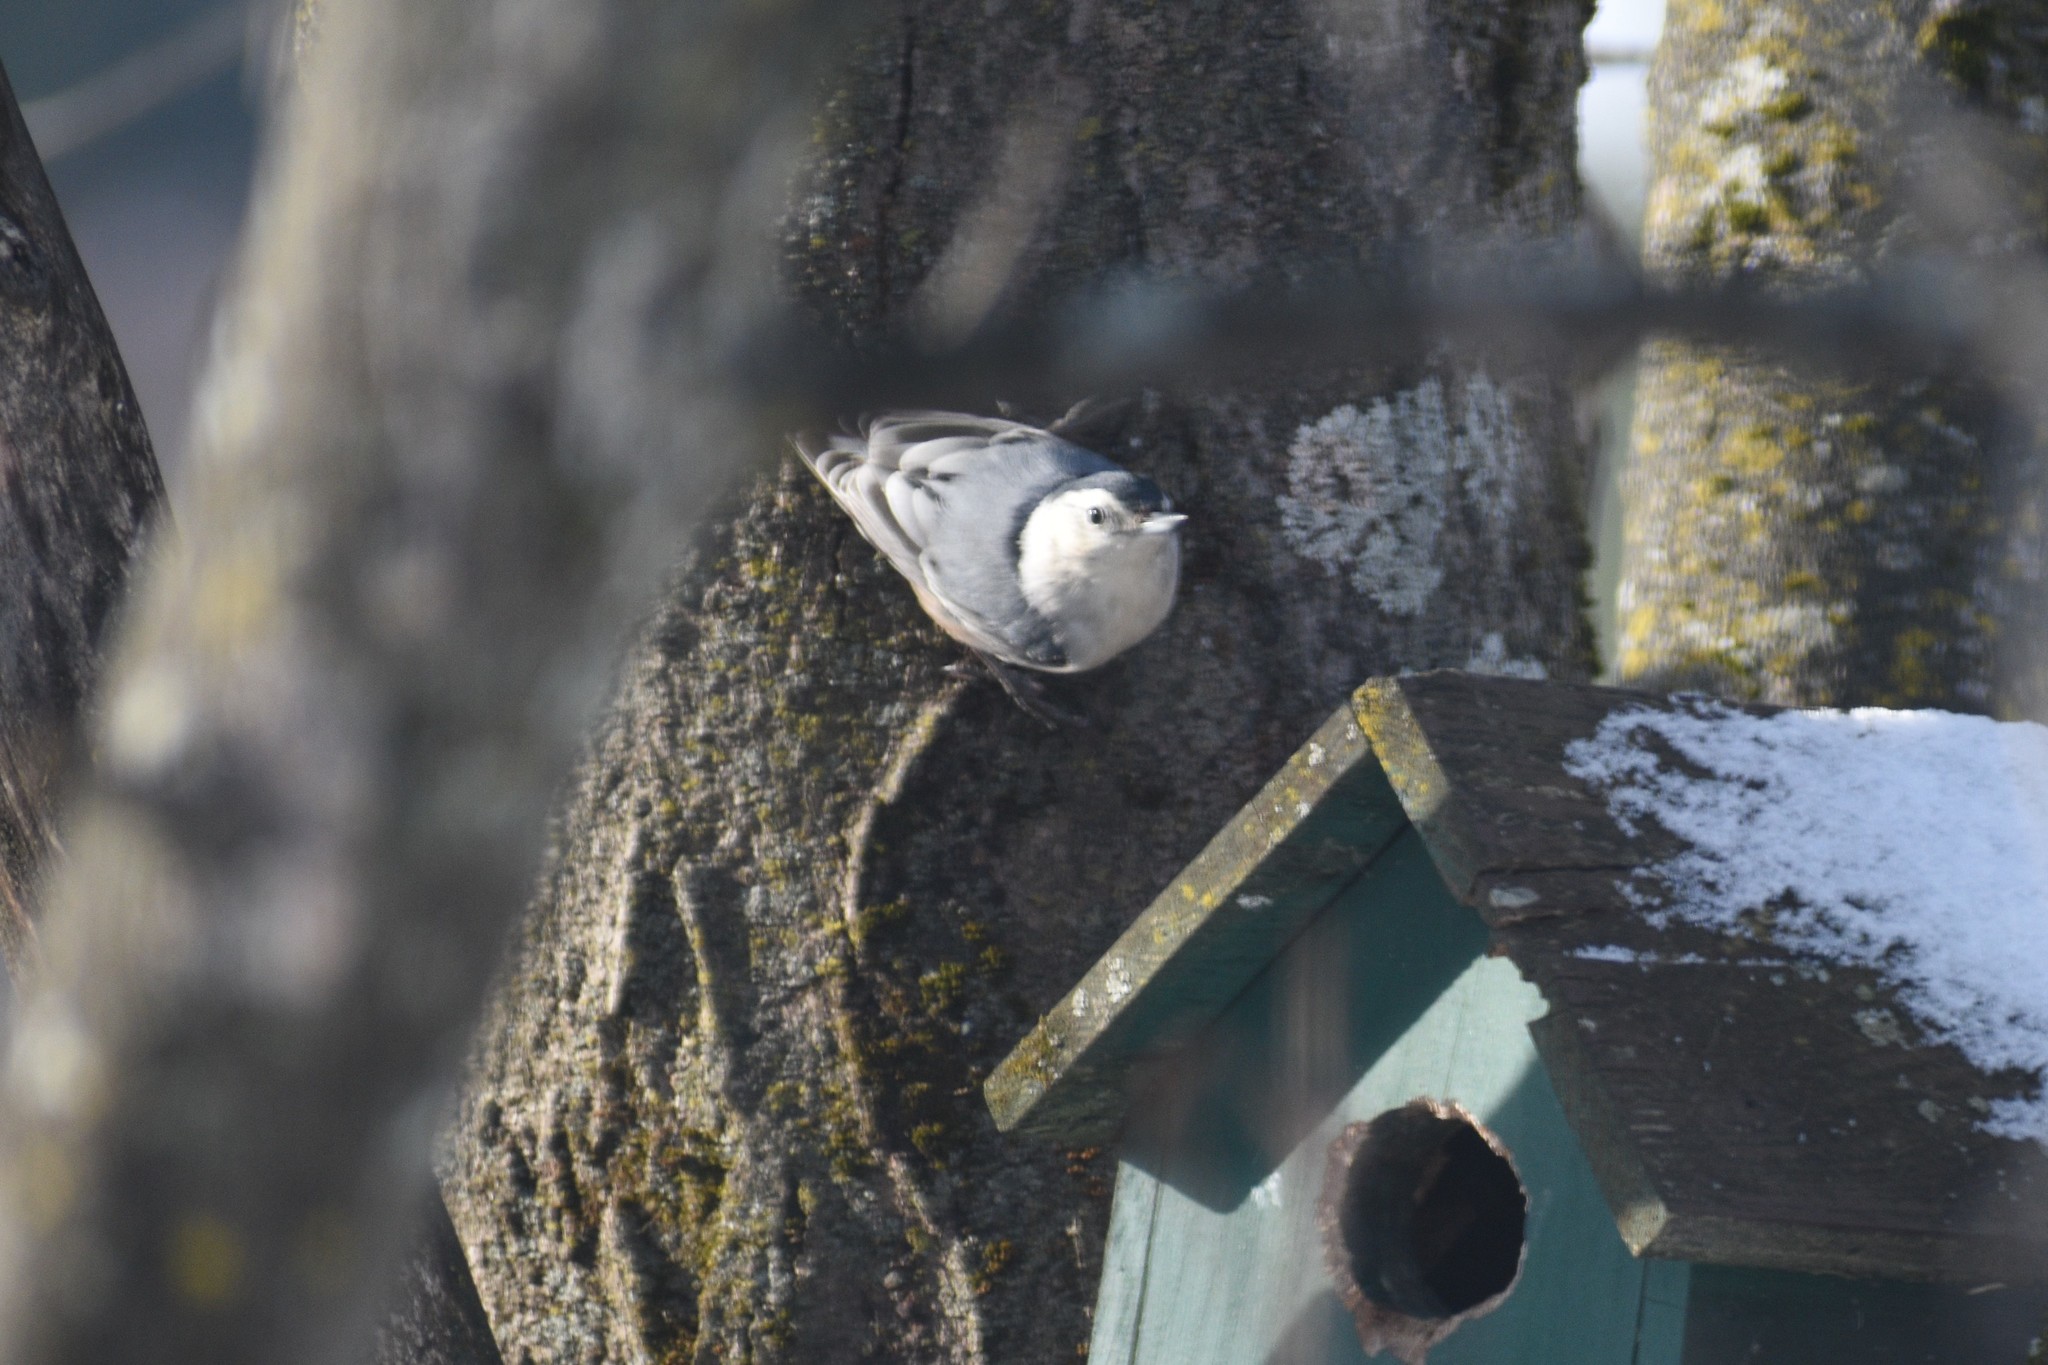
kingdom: Animalia
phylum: Chordata
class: Aves
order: Passeriformes
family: Sittidae
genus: Sitta
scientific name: Sitta carolinensis
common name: White-breasted nuthatch
